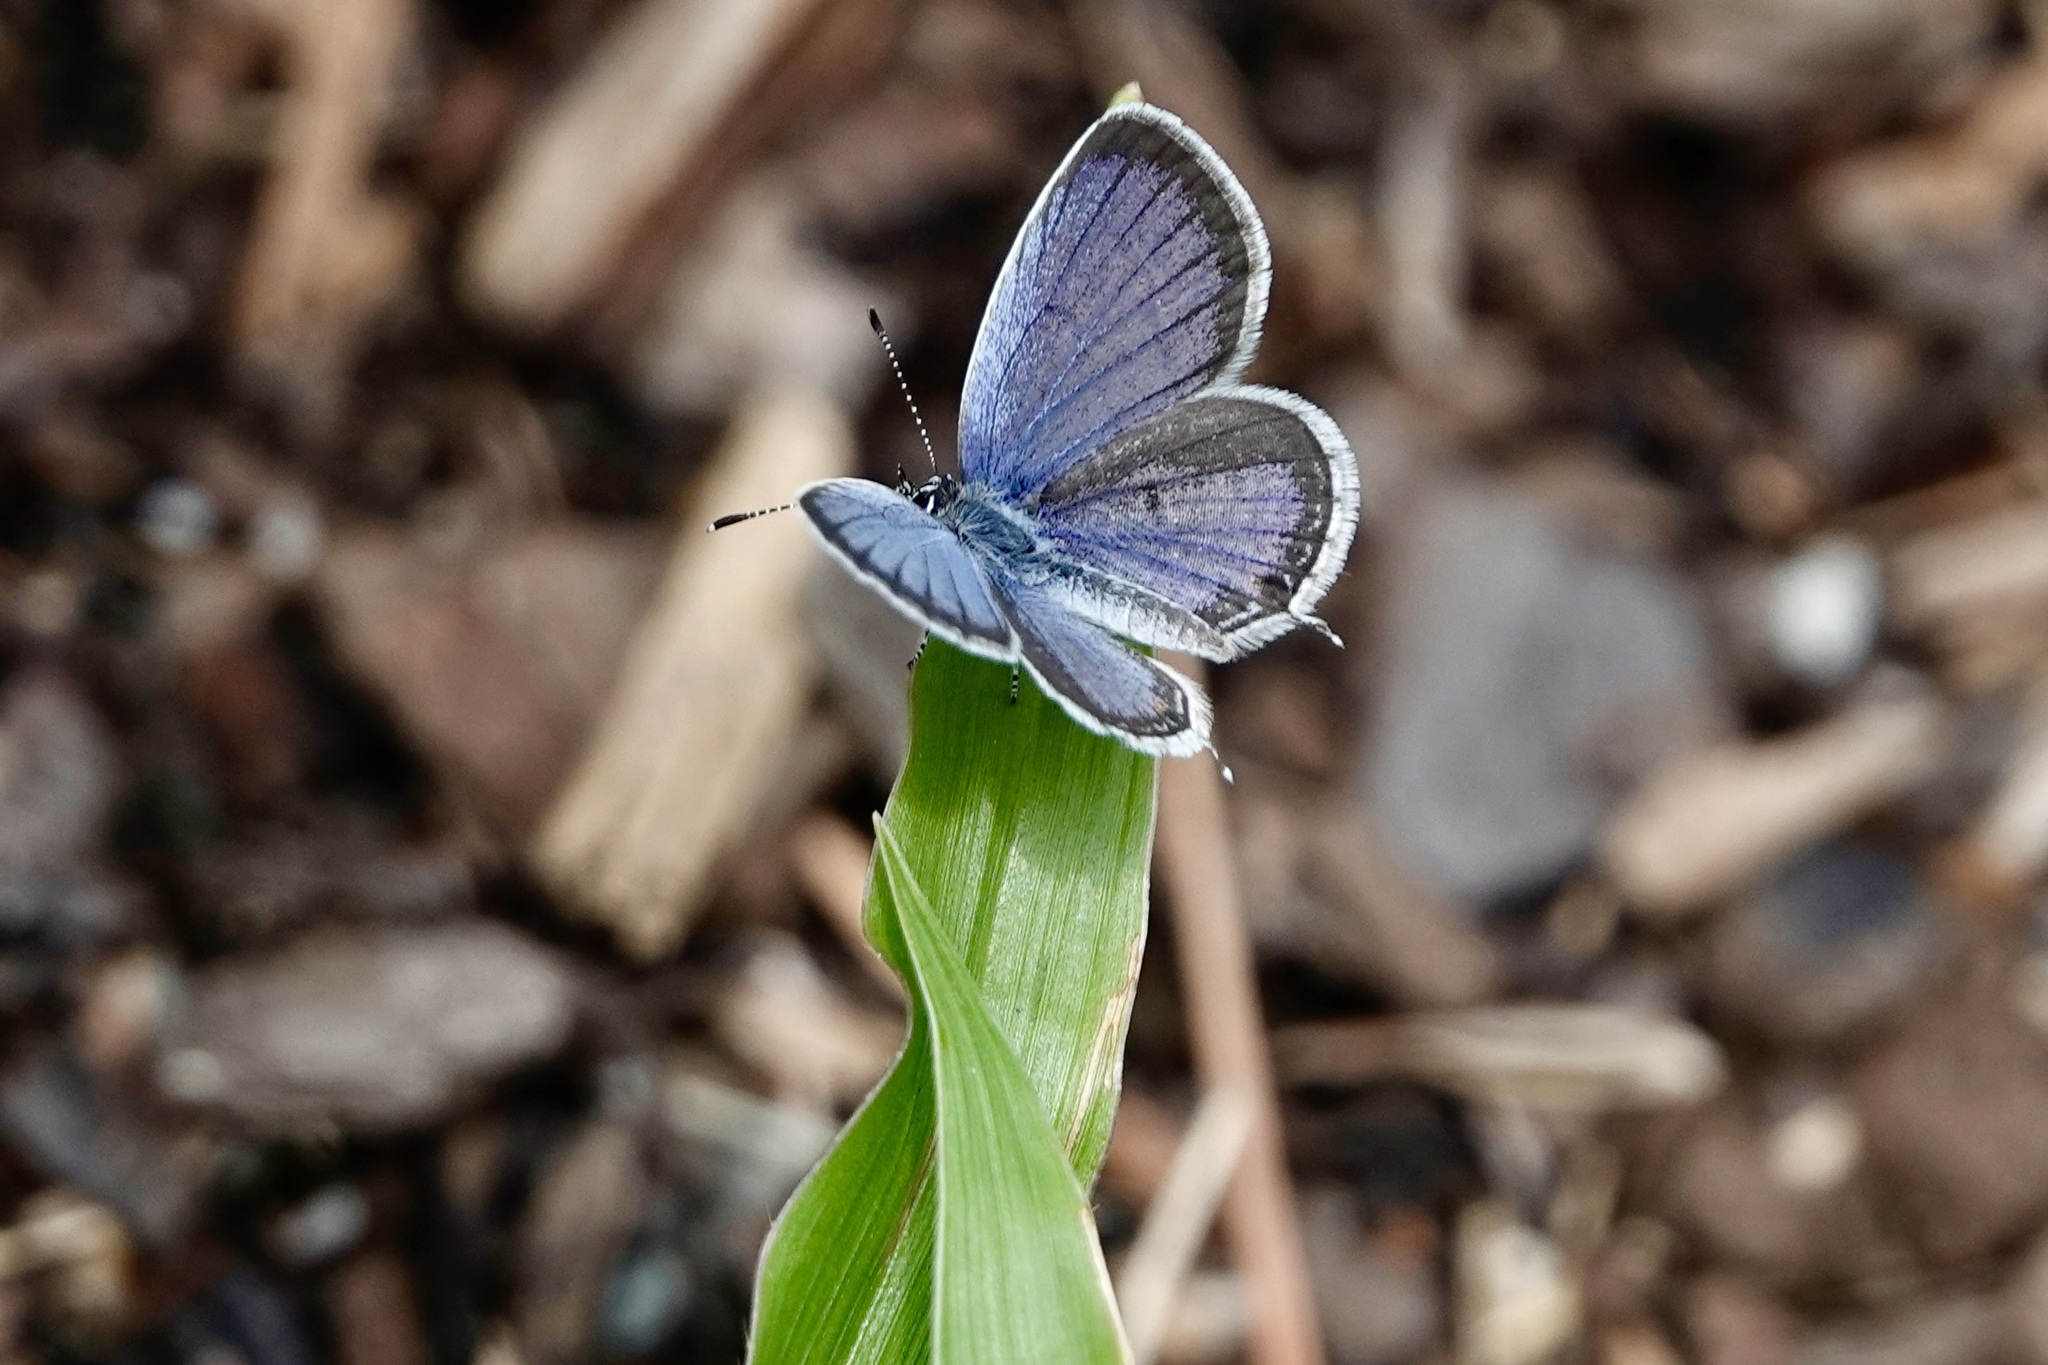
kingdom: Animalia
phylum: Arthropoda
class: Insecta
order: Lepidoptera
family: Lycaenidae
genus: Elkalyce
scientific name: Elkalyce comyntas
